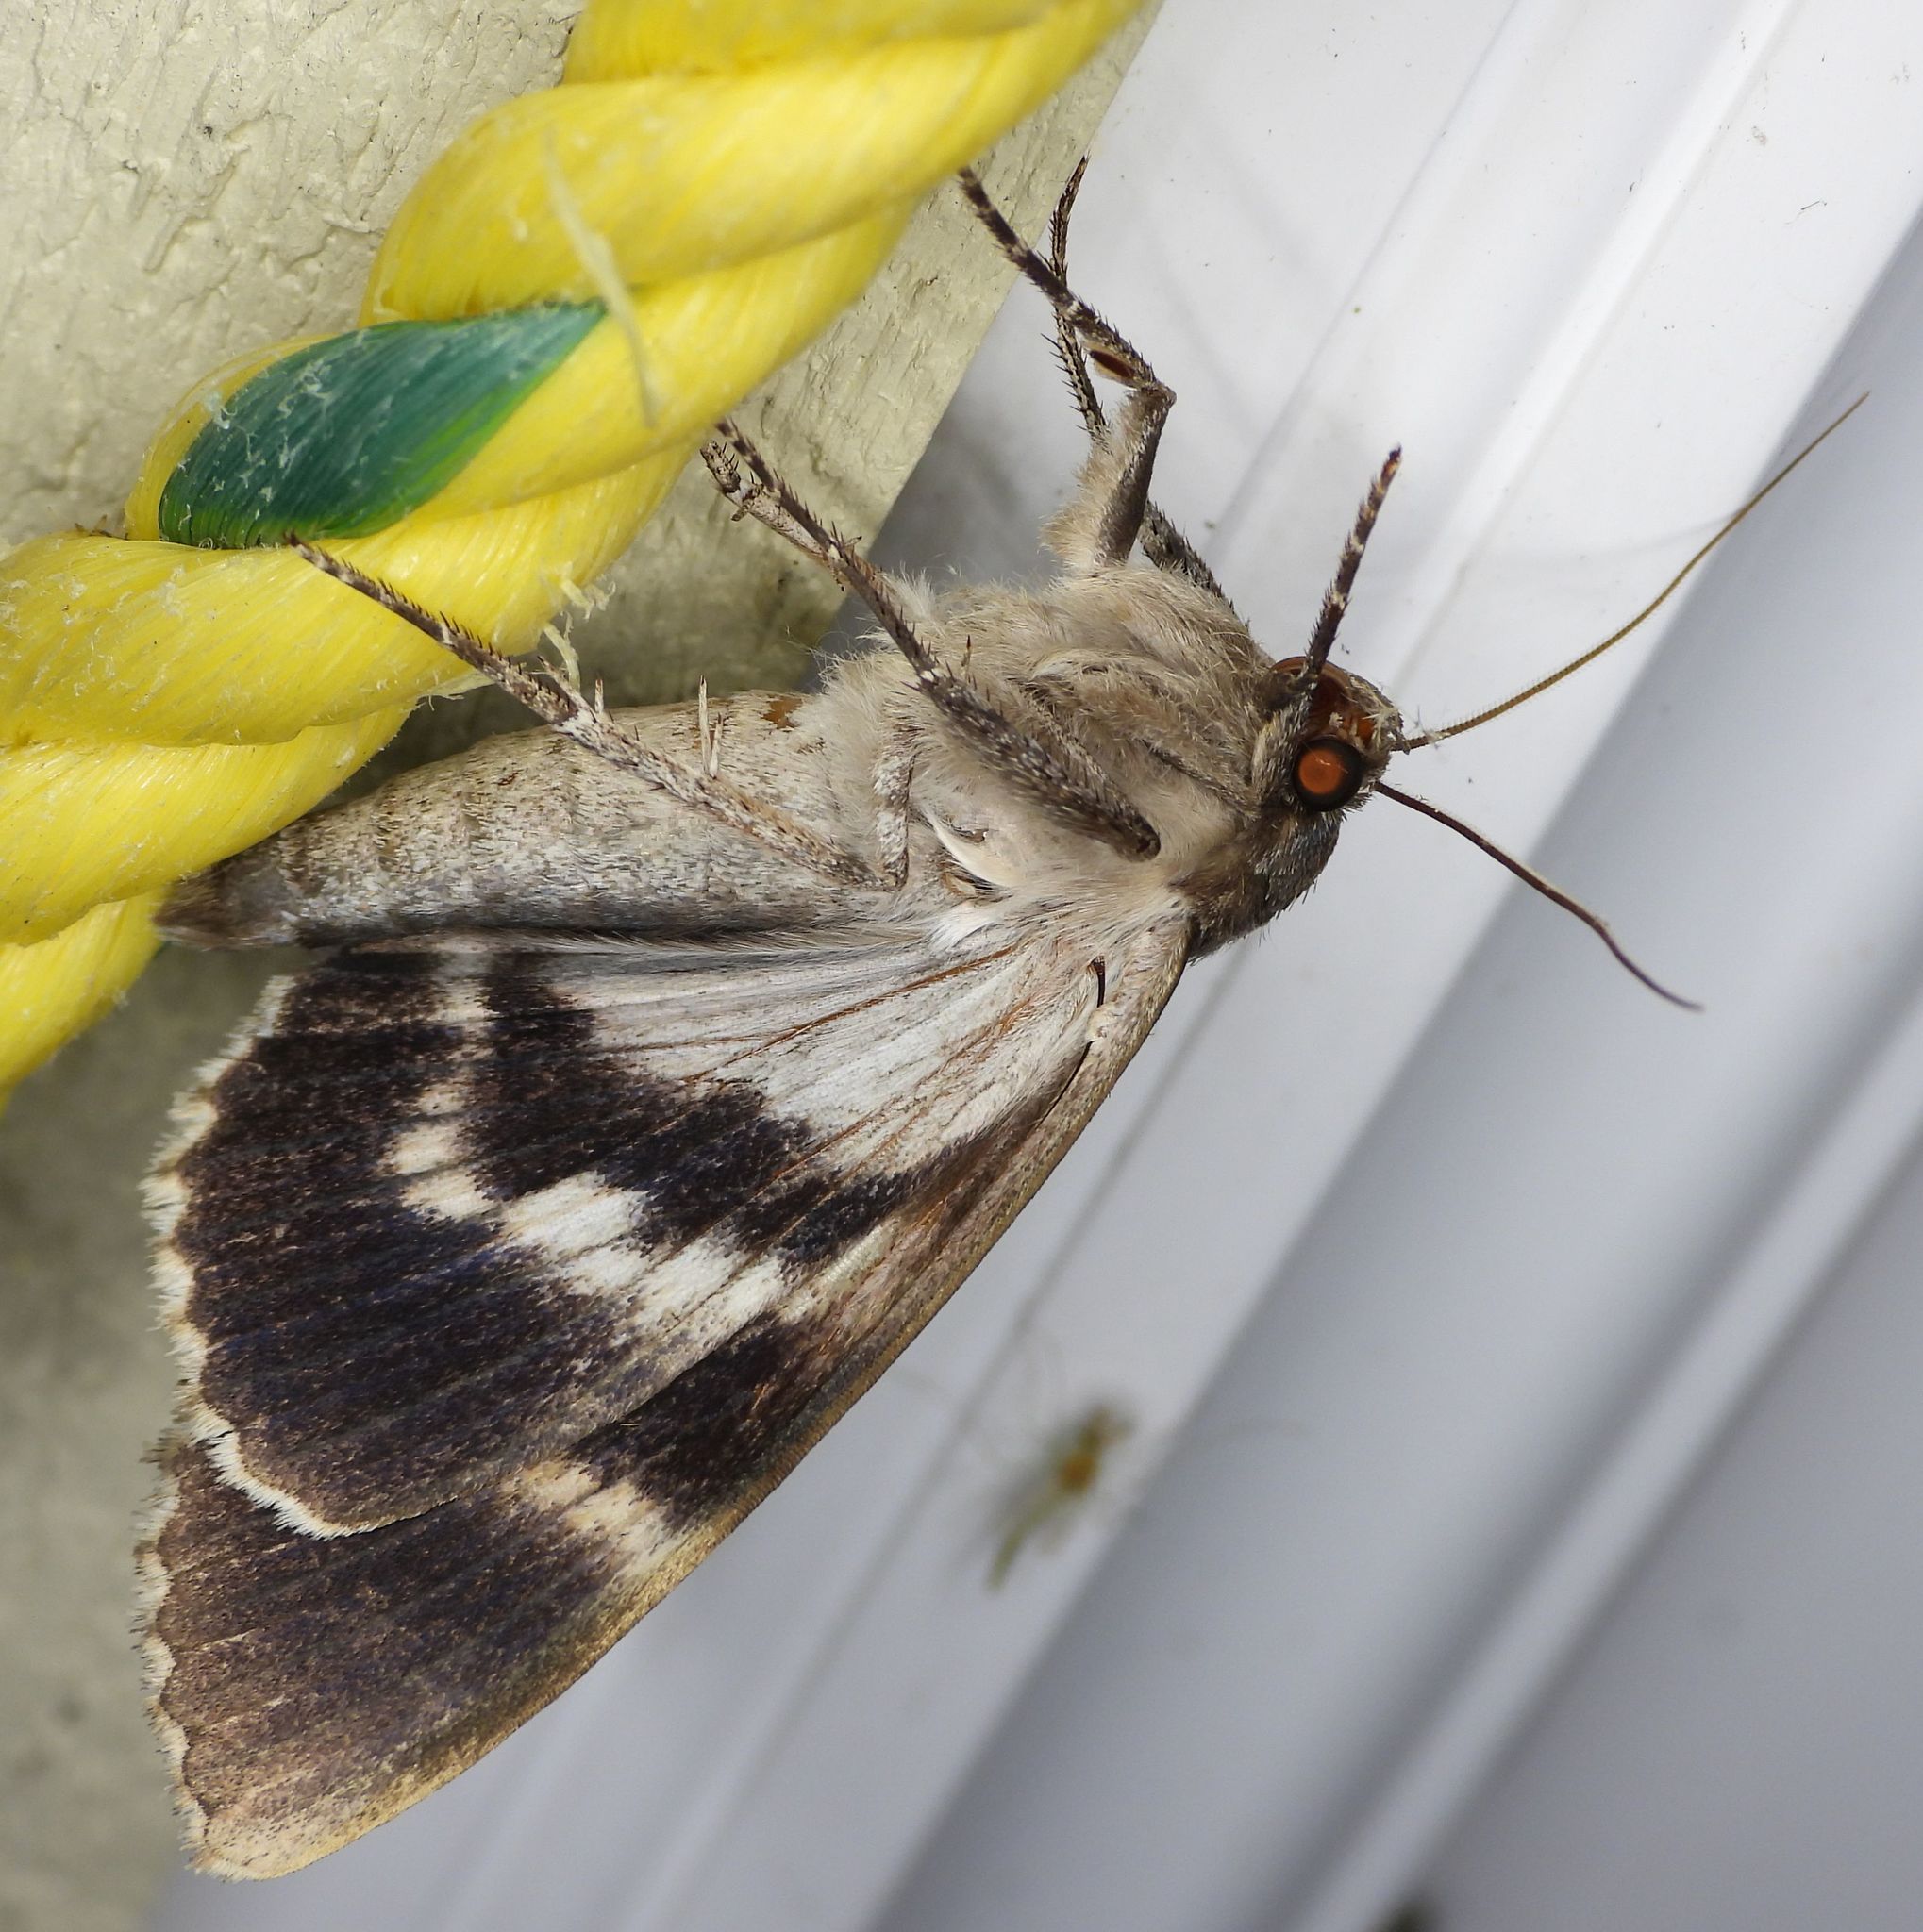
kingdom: Animalia
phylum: Arthropoda
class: Insecta
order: Lepidoptera
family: Erebidae
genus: Catocala
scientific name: Catocala obscura
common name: Obscure underwing moth
